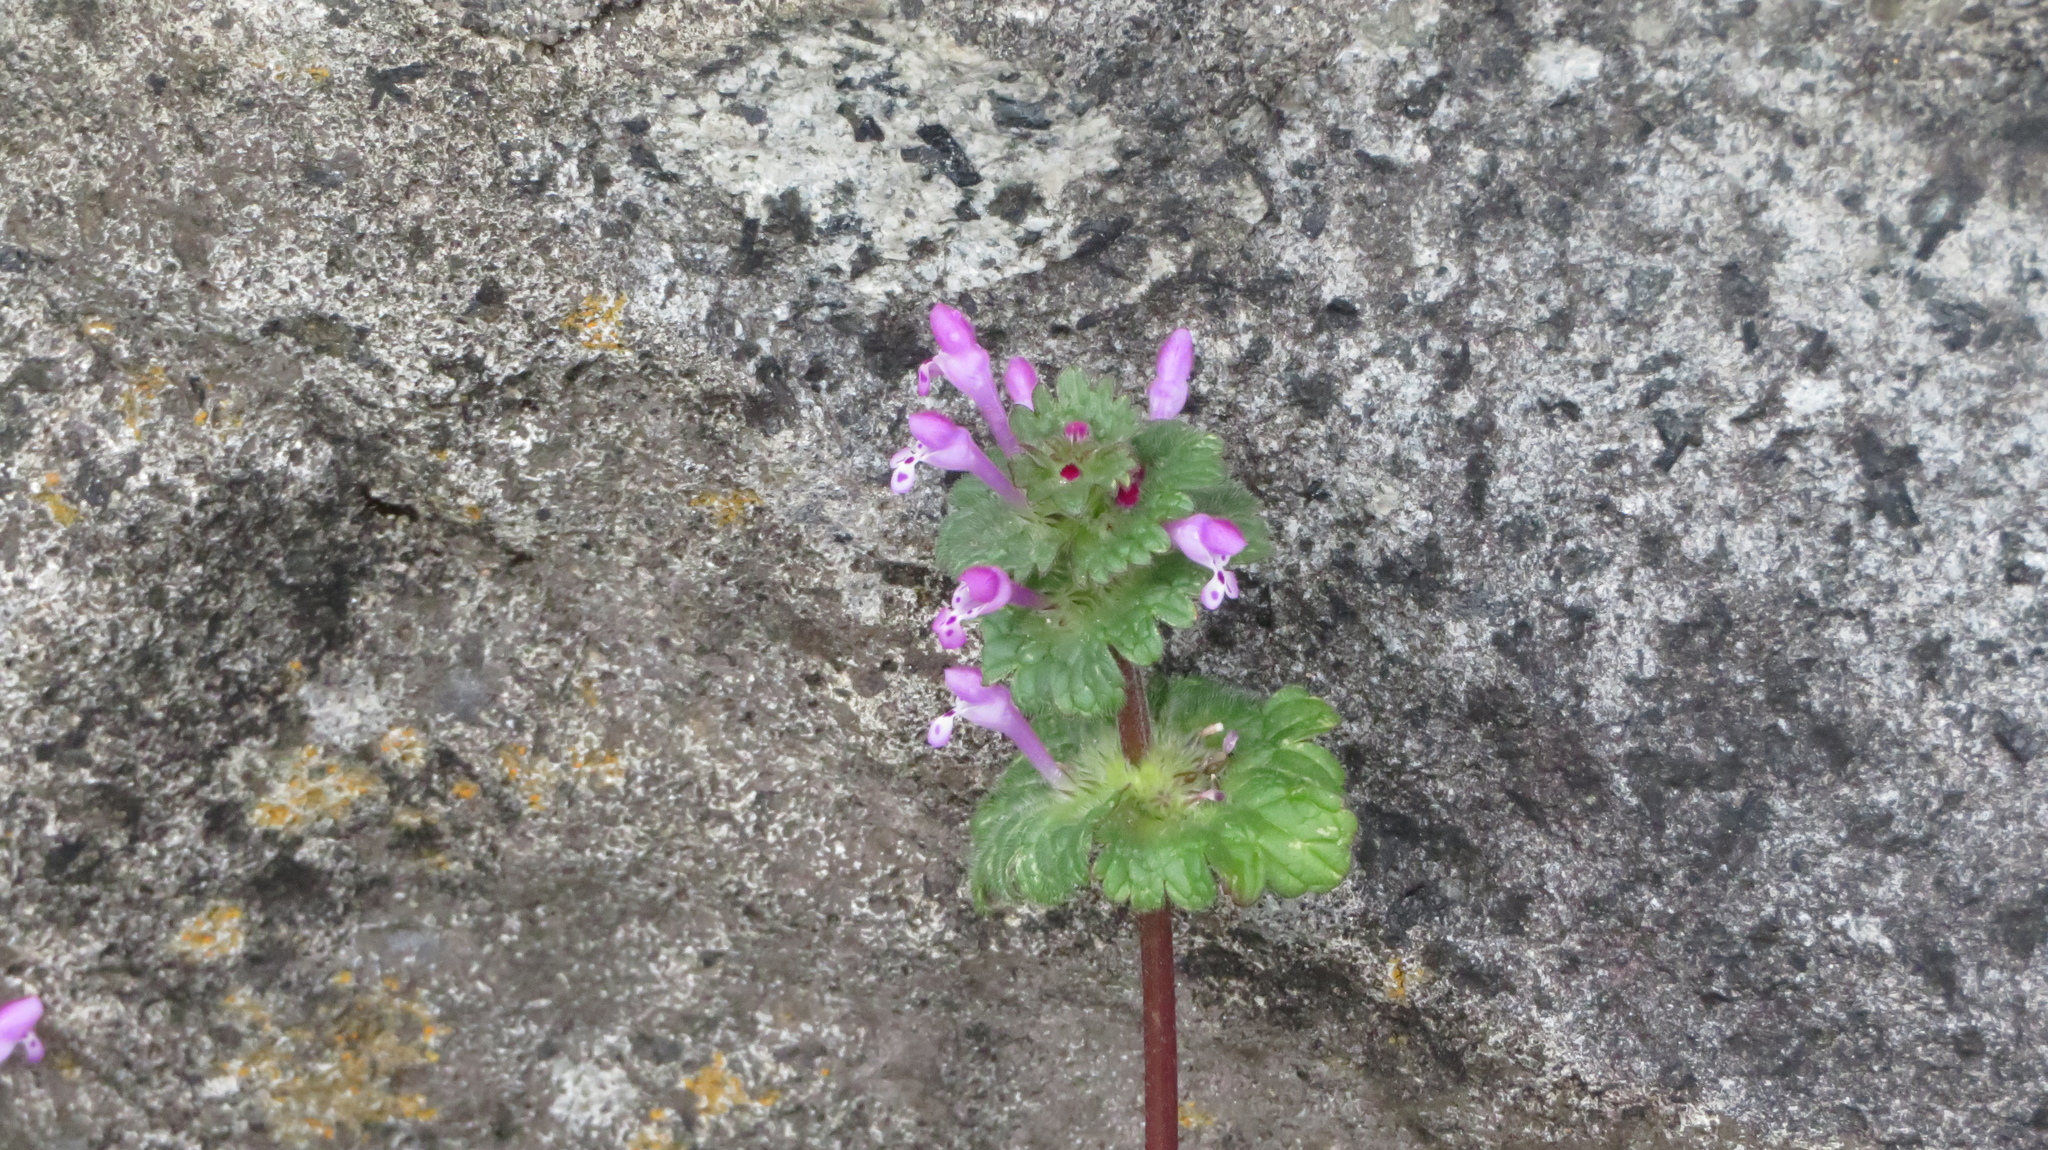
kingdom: Plantae
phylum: Tracheophyta
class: Magnoliopsida
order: Lamiales
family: Lamiaceae
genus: Lamium
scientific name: Lamium amplexicaule
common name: Henbit dead-nettle
